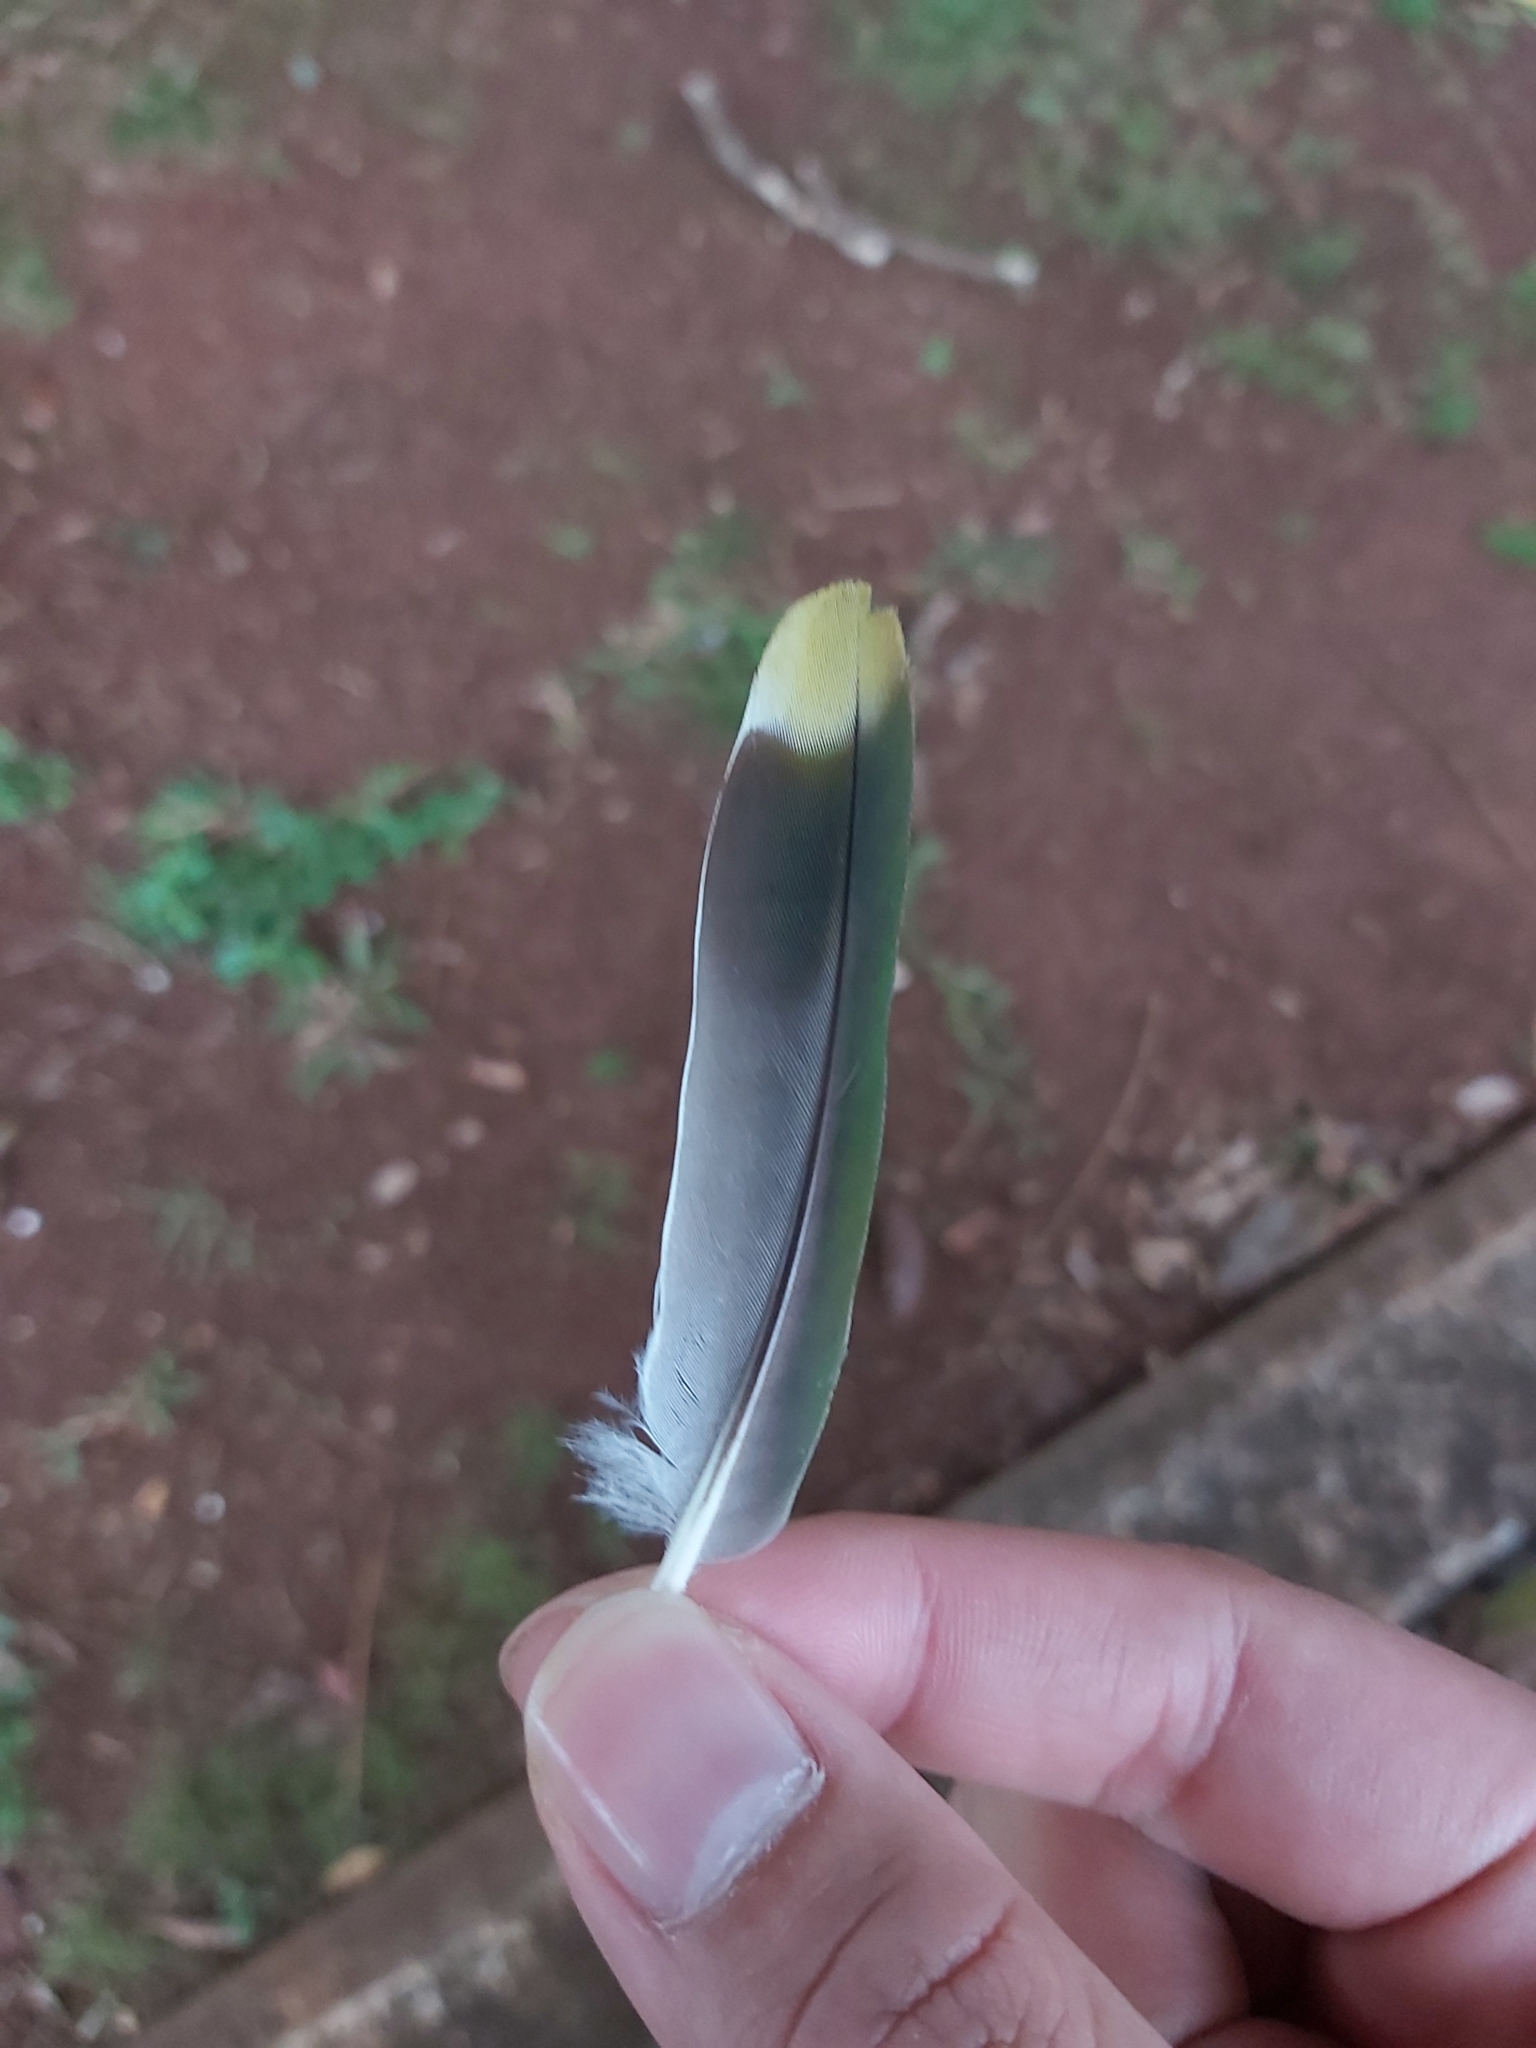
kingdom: Animalia
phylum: Chordata
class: Aves
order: Columbiformes
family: Columbidae
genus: Ptilinopus
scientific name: Ptilinopus regina
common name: Rose-crowned fruit dove
